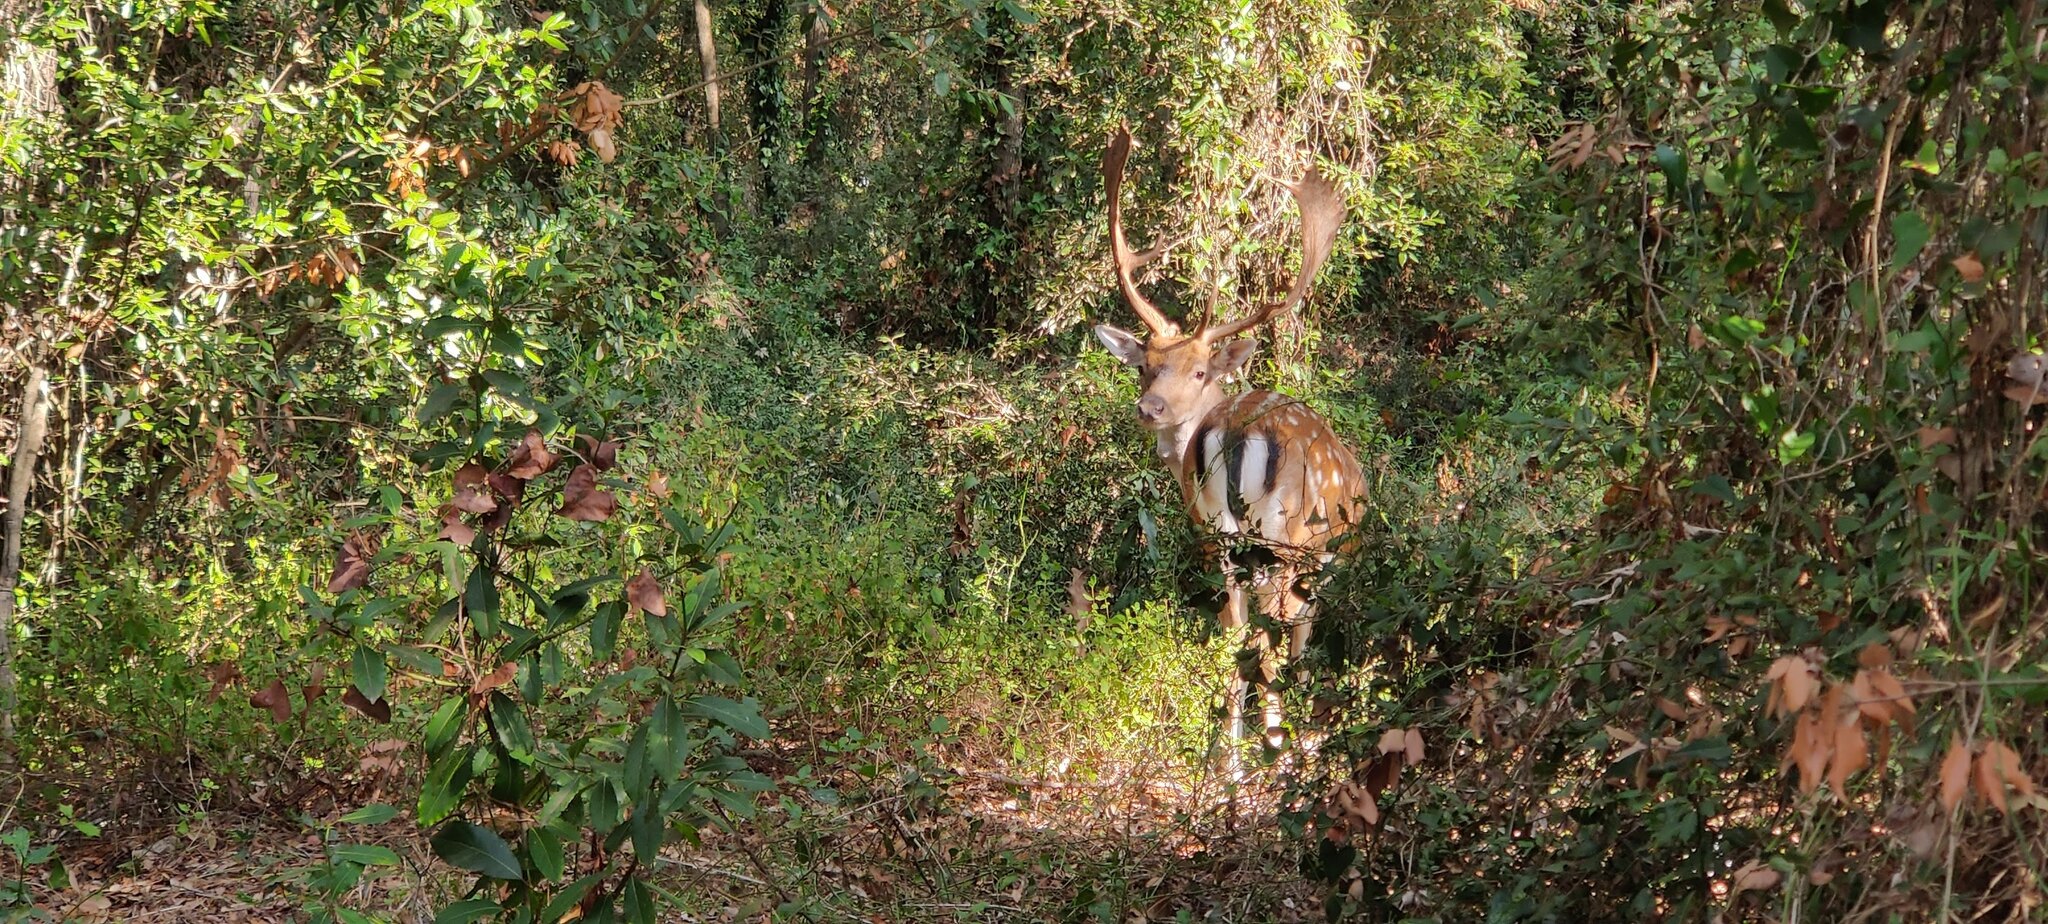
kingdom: Animalia
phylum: Chordata
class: Mammalia
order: Artiodactyla
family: Cervidae
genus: Dama
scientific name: Dama dama
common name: Fallow deer
